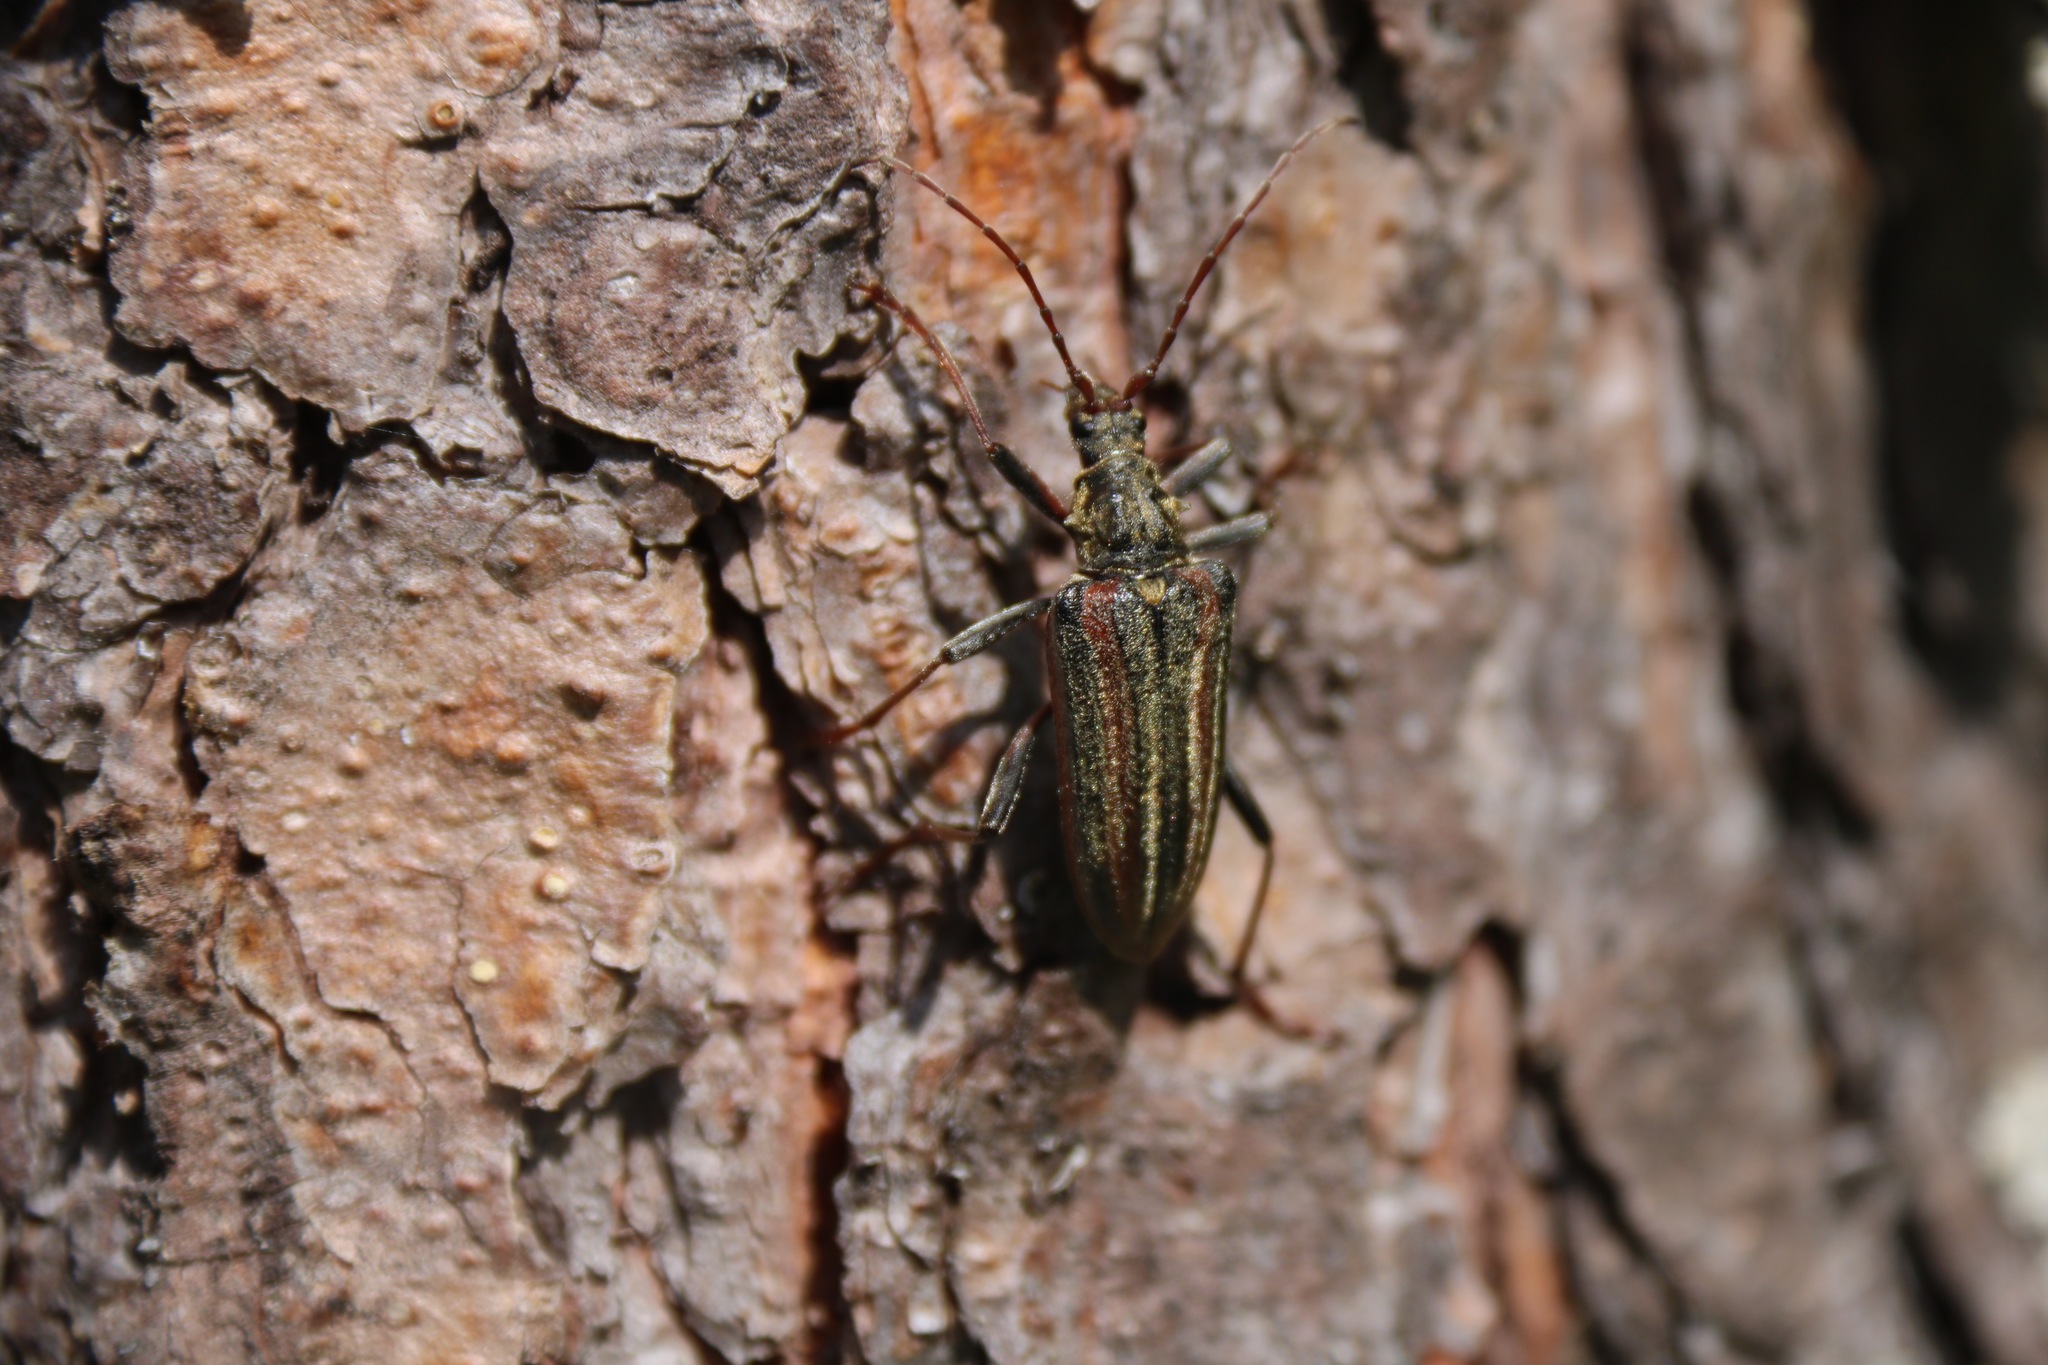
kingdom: Animalia
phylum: Arthropoda
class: Insecta
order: Coleoptera
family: Cerambycidae
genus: Oxymirus
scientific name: Oxymirus cursor
